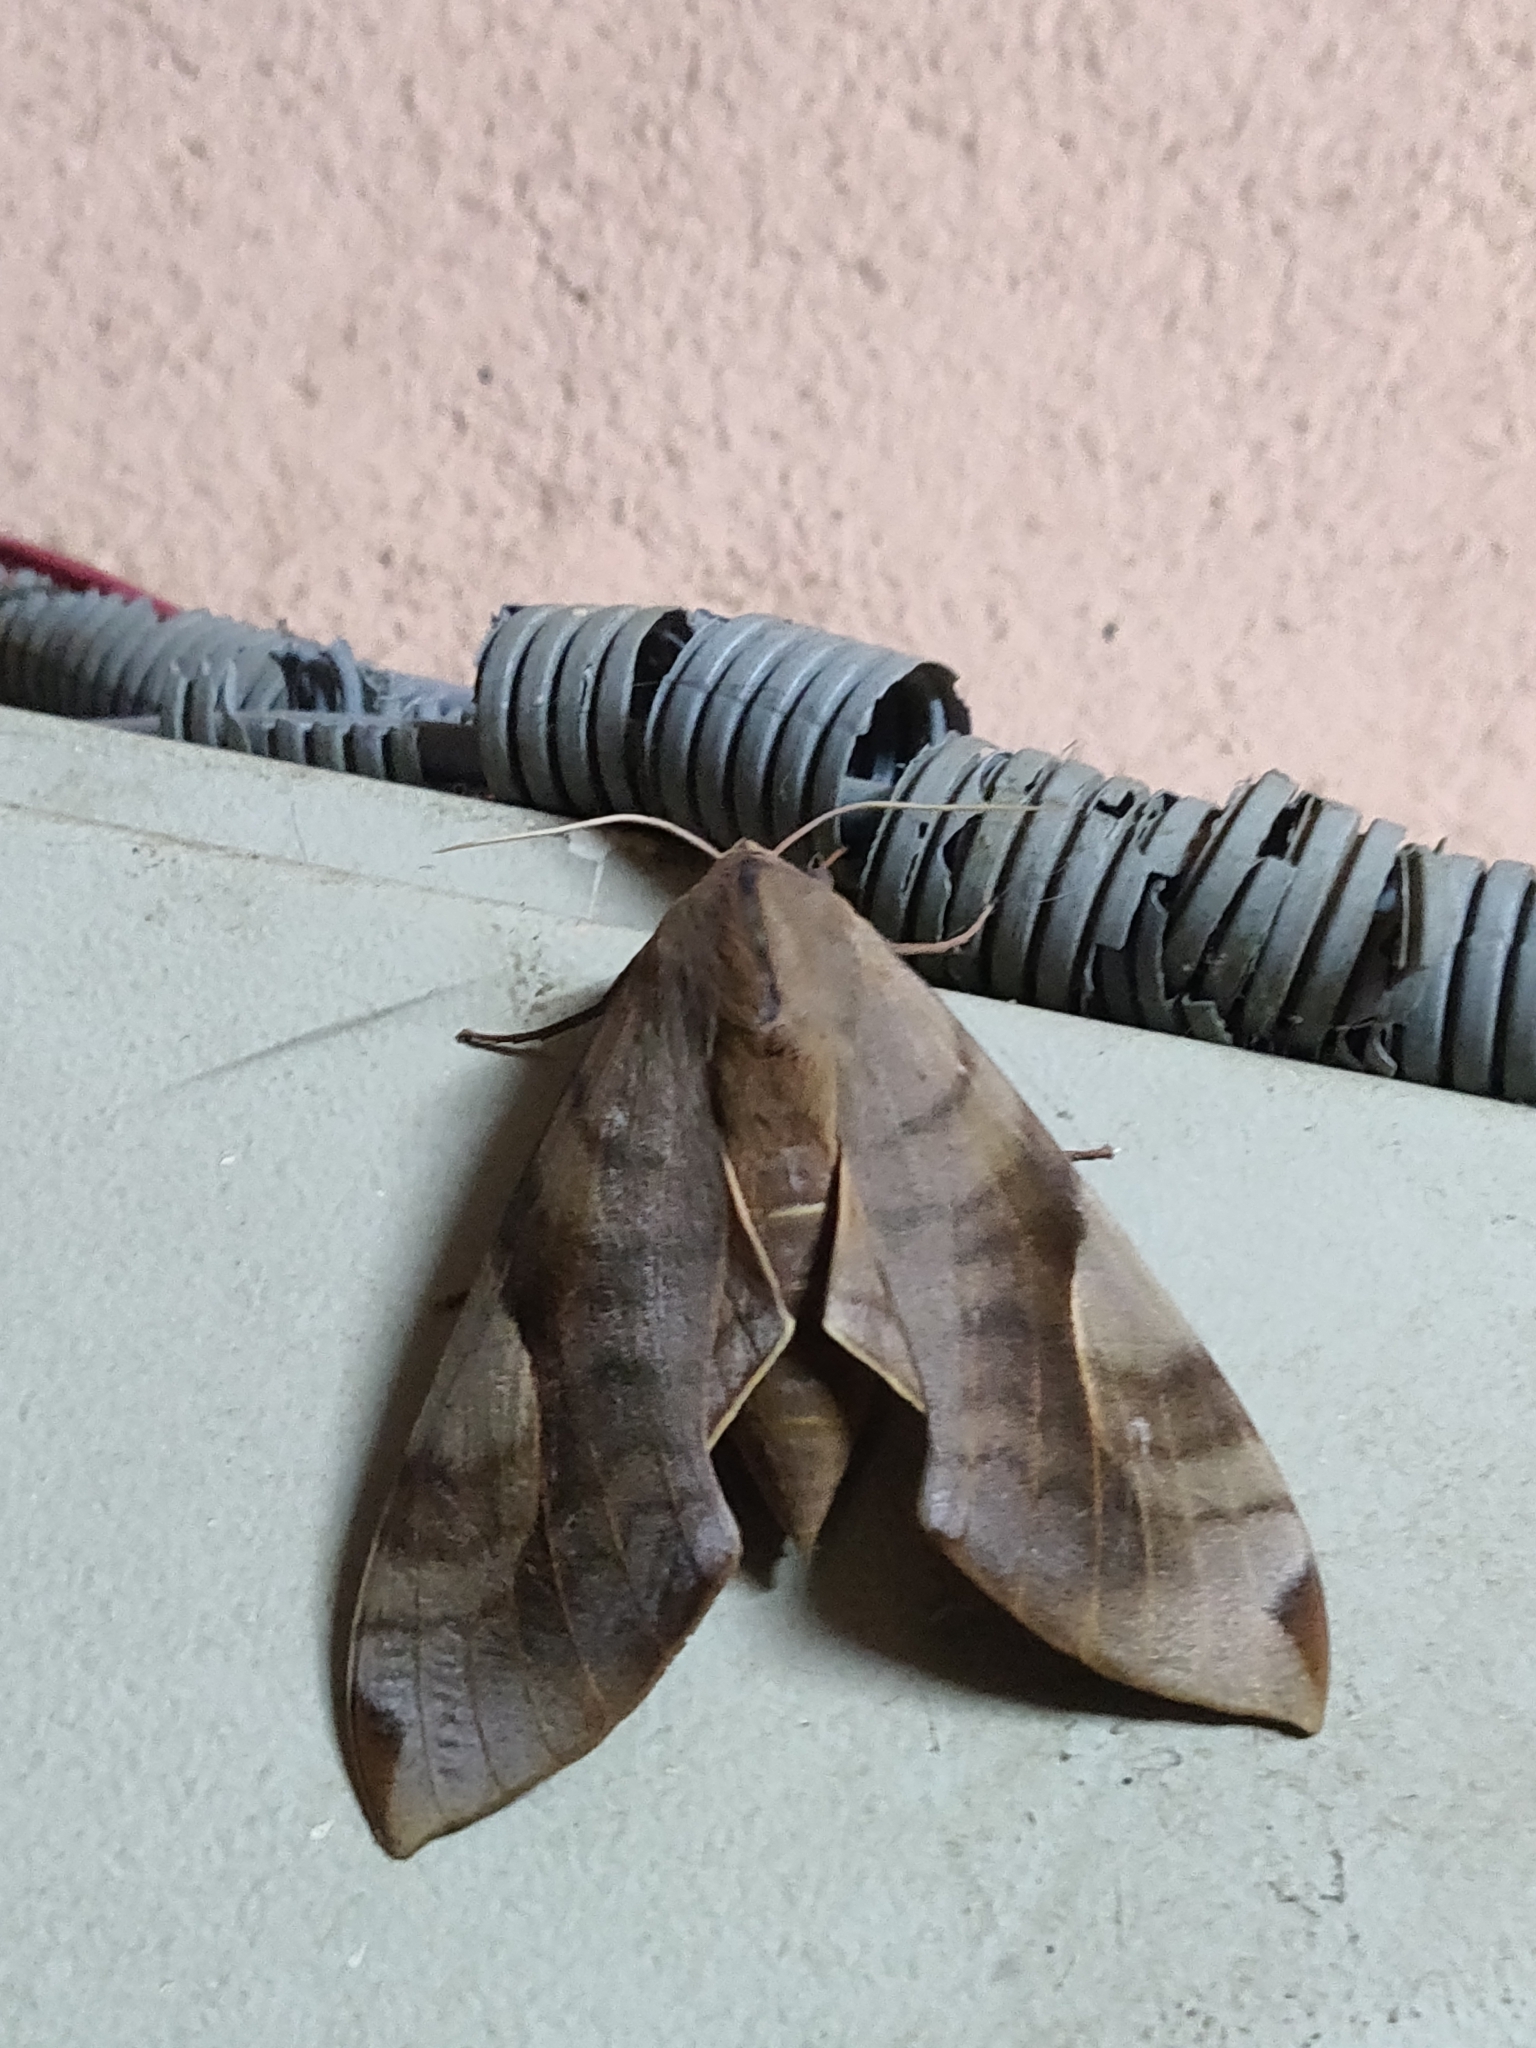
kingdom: Animalia
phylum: Arthropoda
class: Insecta
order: Lepidoptera
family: Sphingidae
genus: Clanis
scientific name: Clanis bilineata
